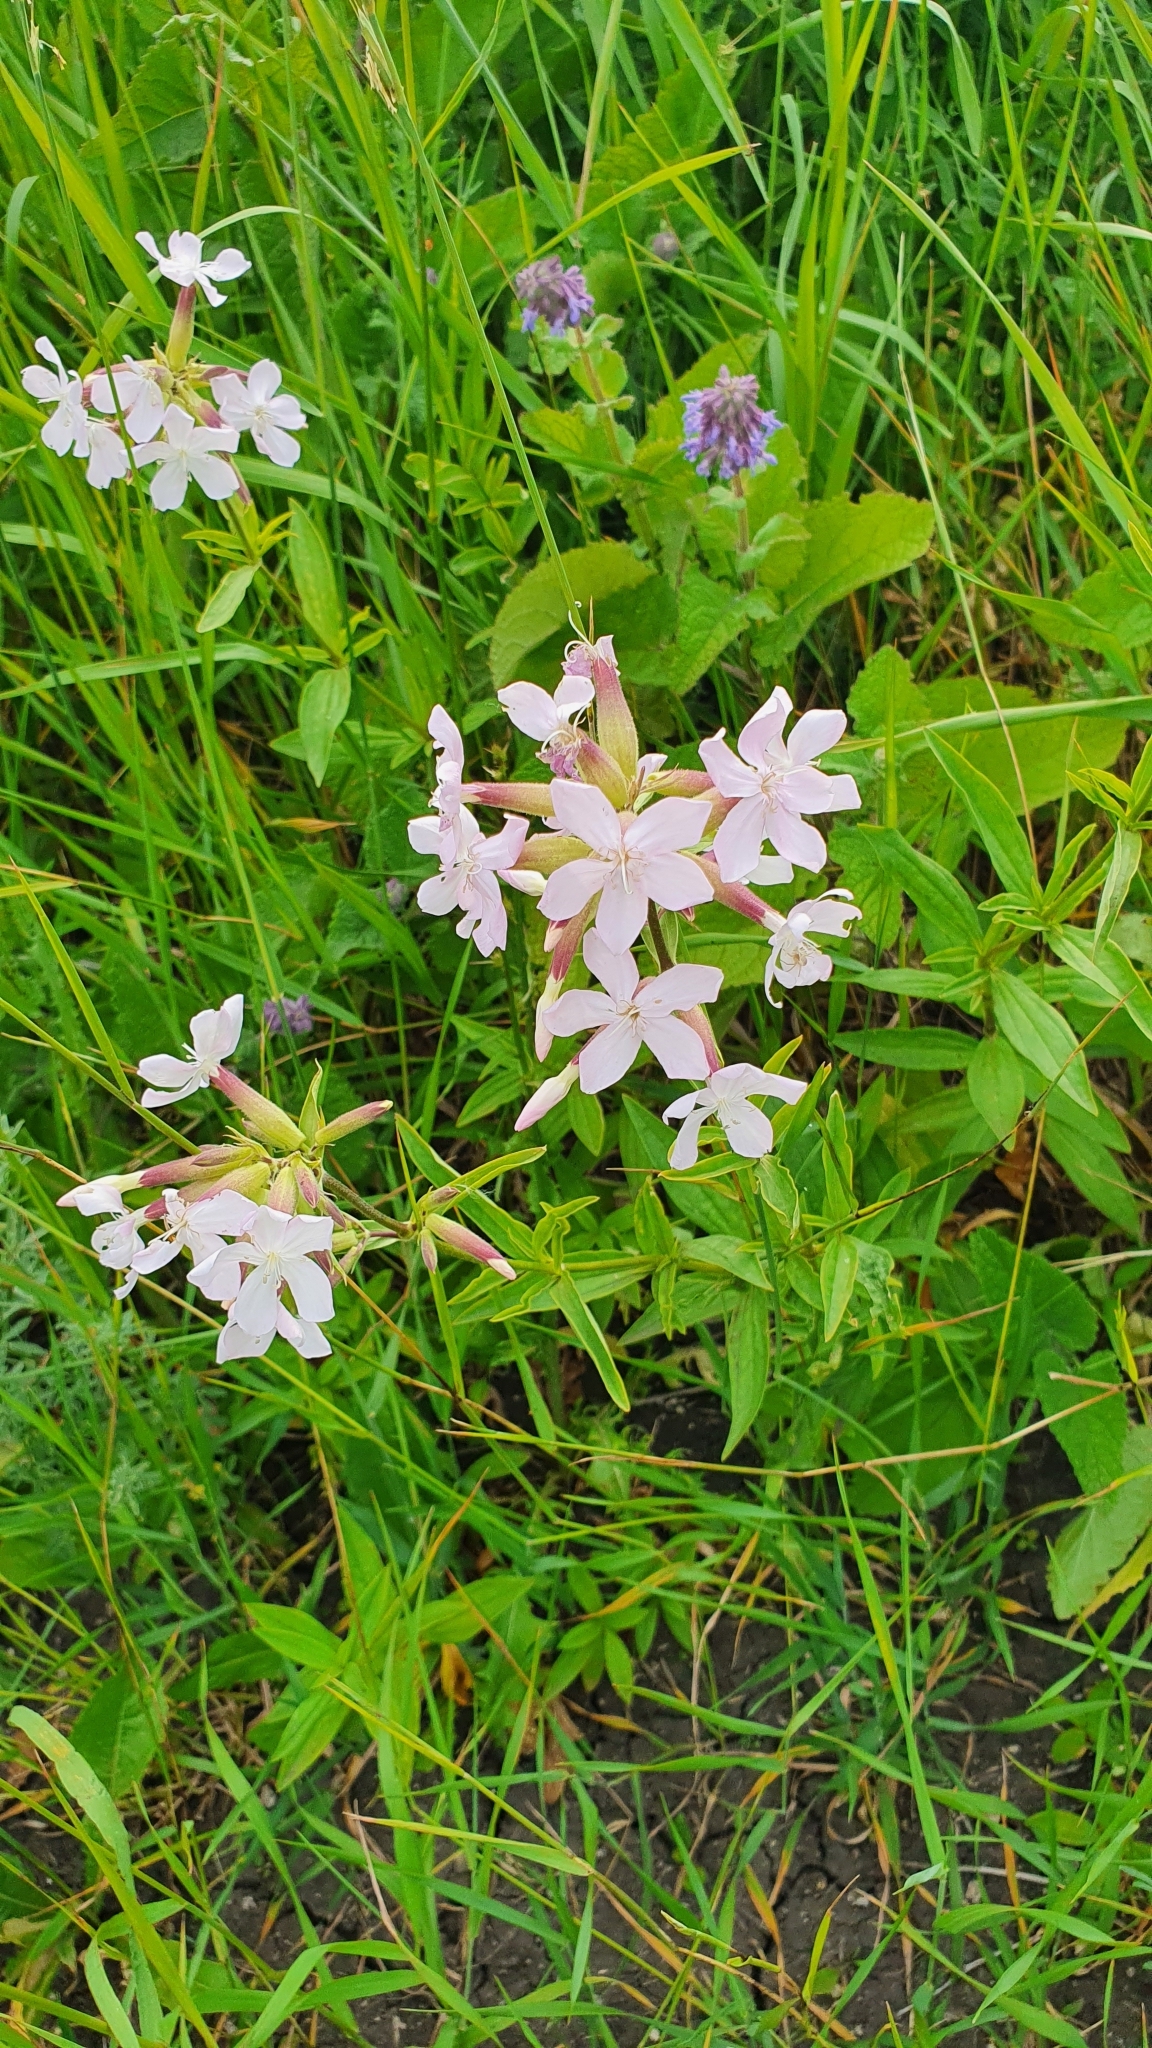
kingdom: Plantae
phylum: Tracheophyta
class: Magnoliopsida
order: Caryophyllales
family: Caryophyllaceae
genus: Saponaria
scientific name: Saponaria officinalis
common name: Soapwort
